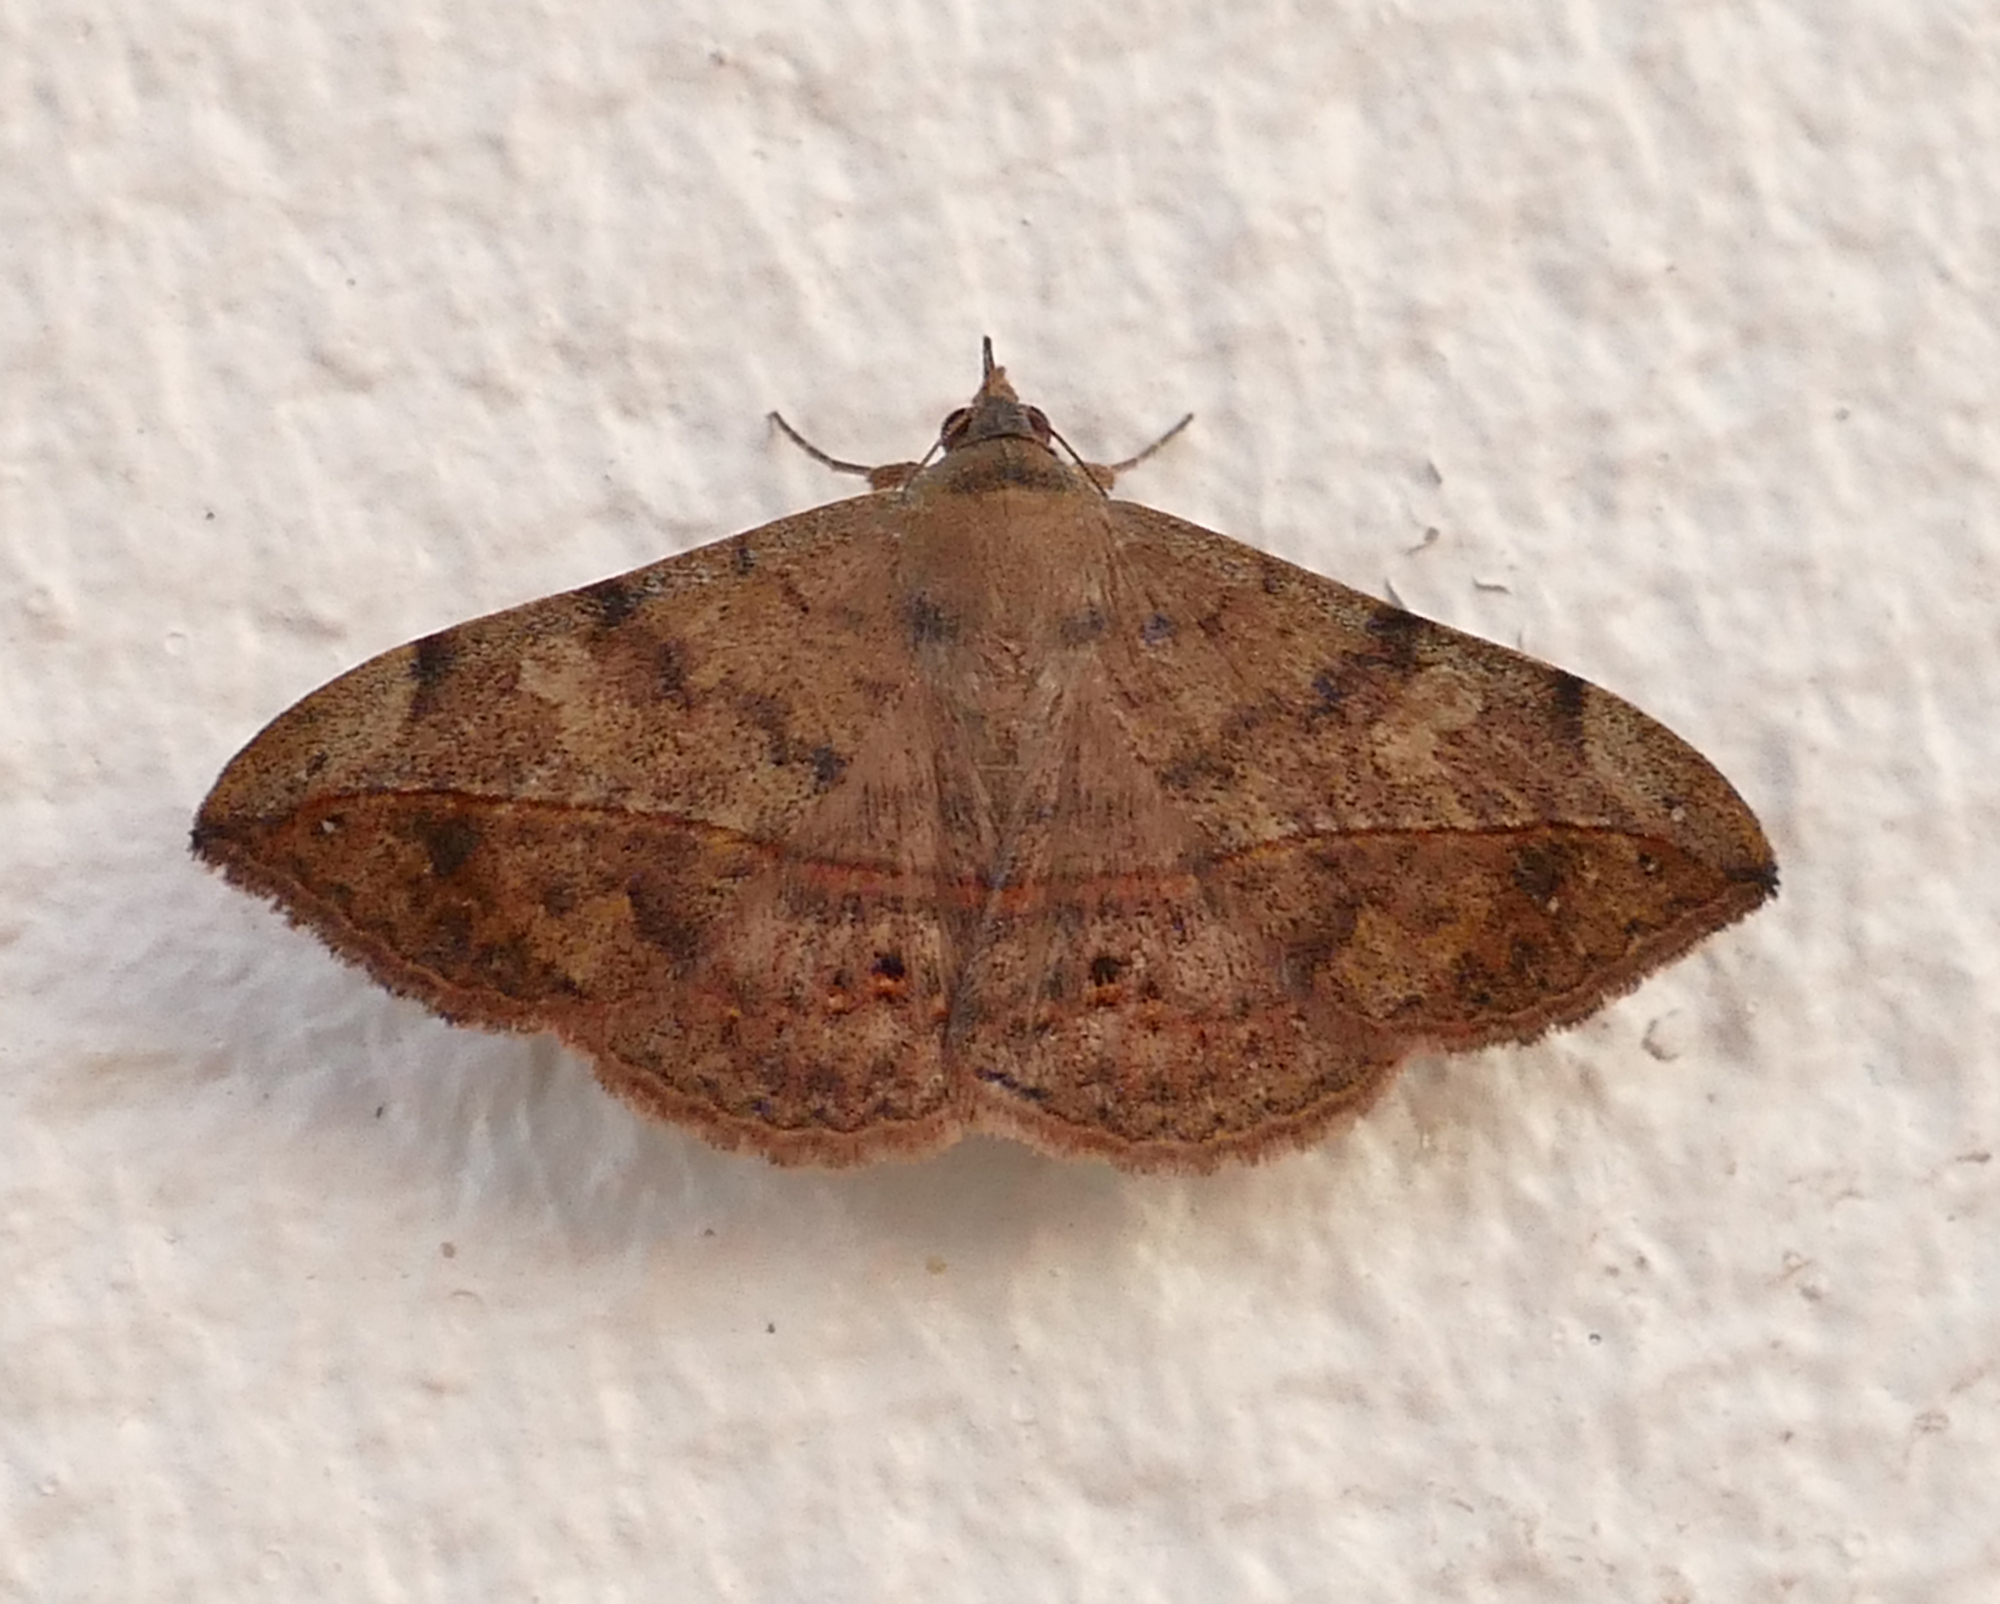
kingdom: Animalia
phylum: Arthropoda
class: Insecta
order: Lepidoptera
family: Erebidae
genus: Anticarsia
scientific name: Anticarsia gemmatalis
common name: Cutworm moth
